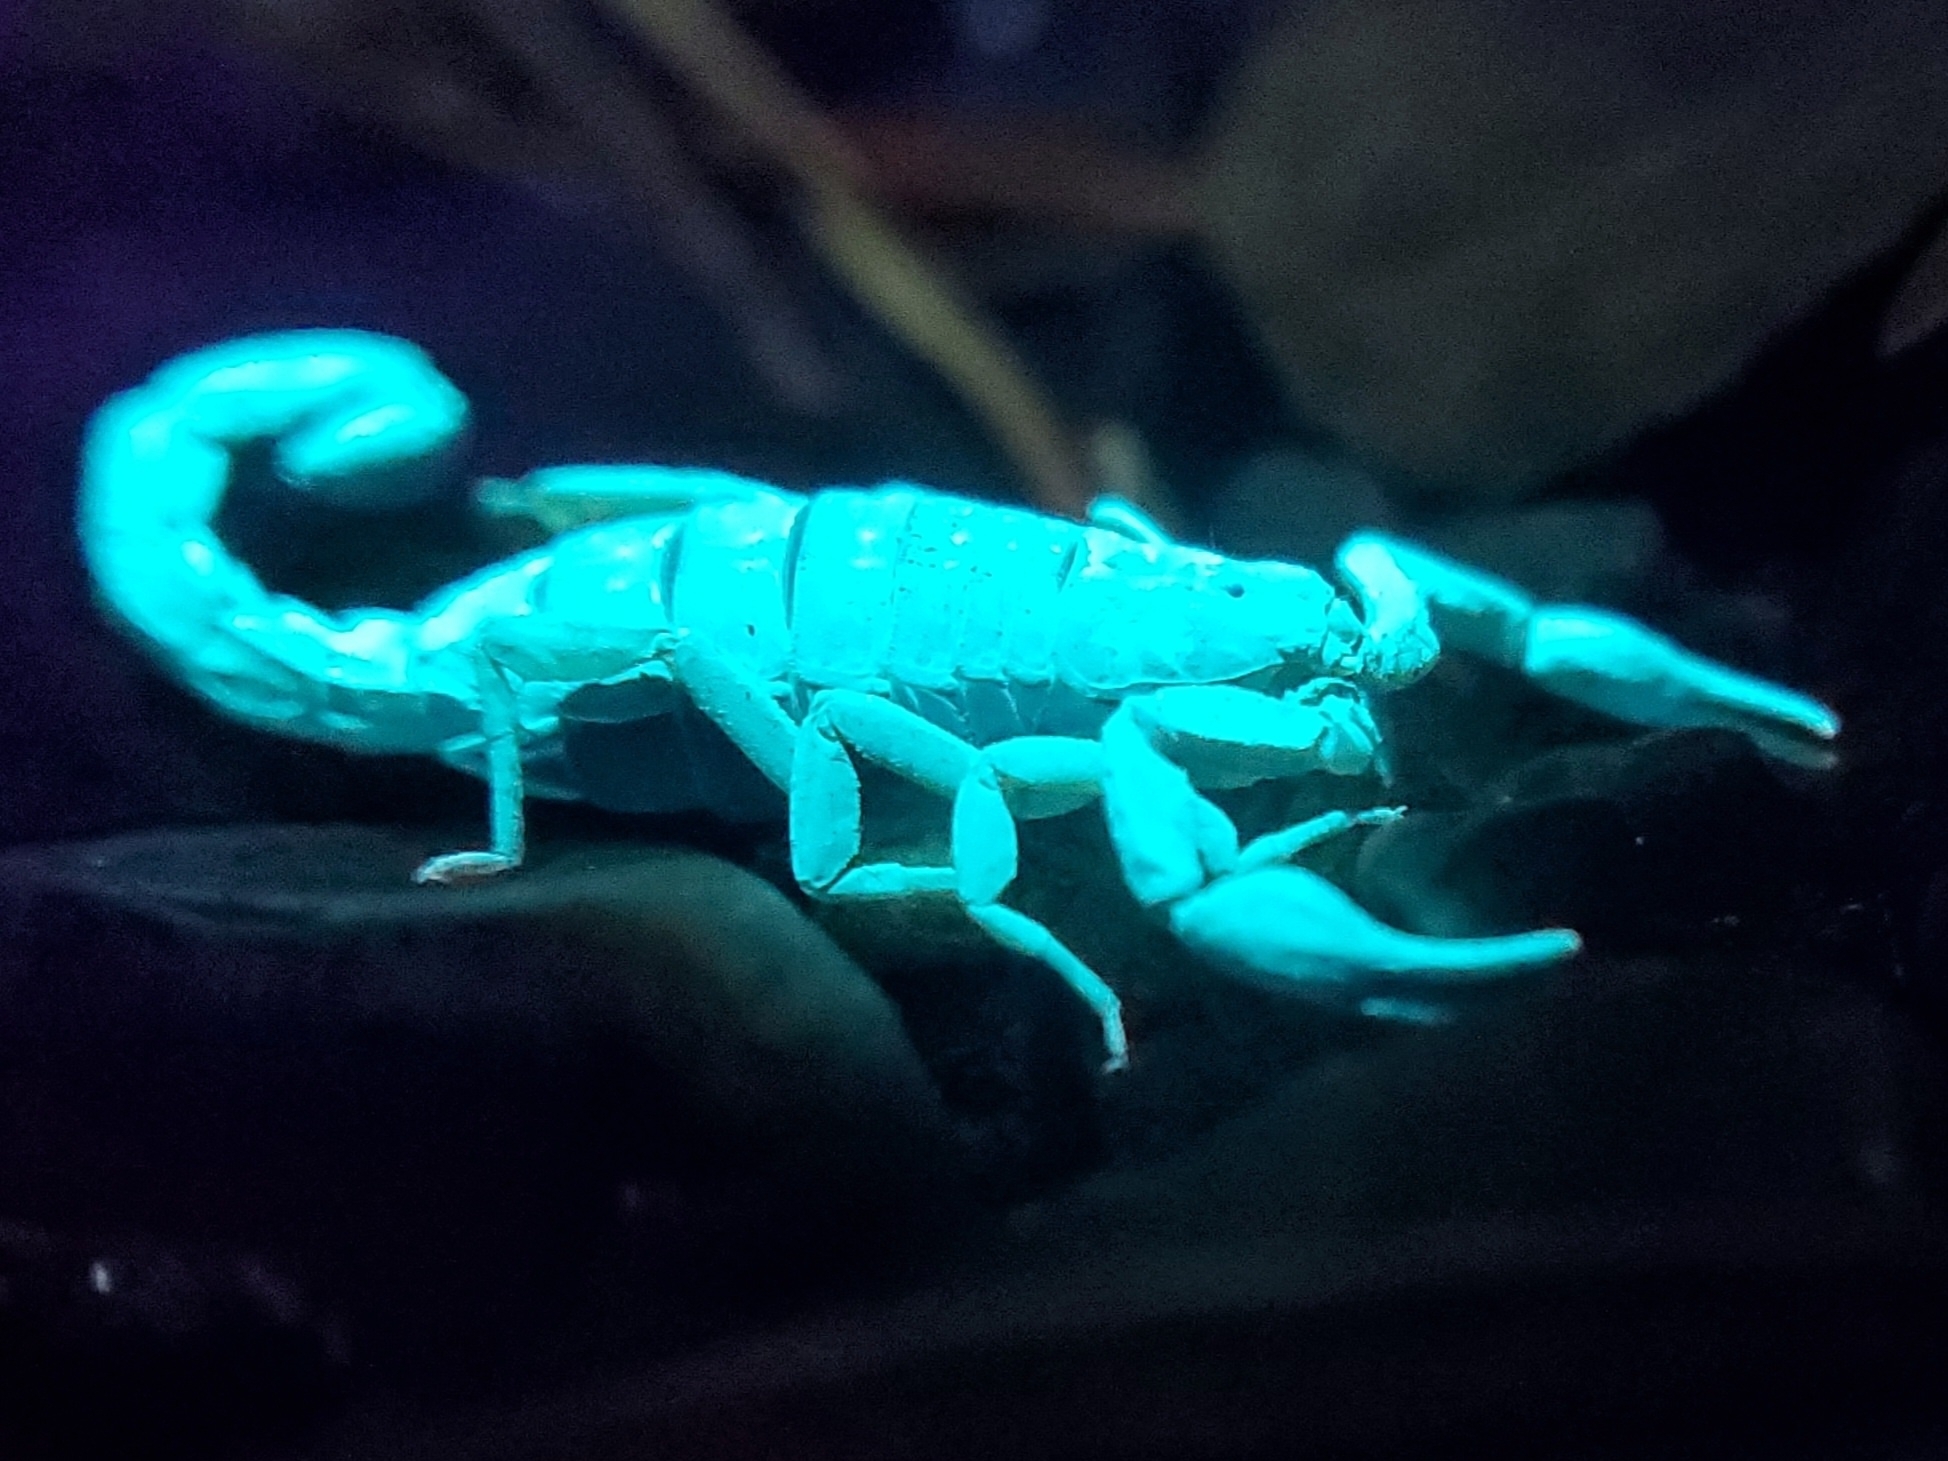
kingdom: Animalia
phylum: Arthropoda
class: Arachnida
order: Scorpiones
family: Vaejovidae
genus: Vaejovis
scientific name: Vaejovis carolinianus
